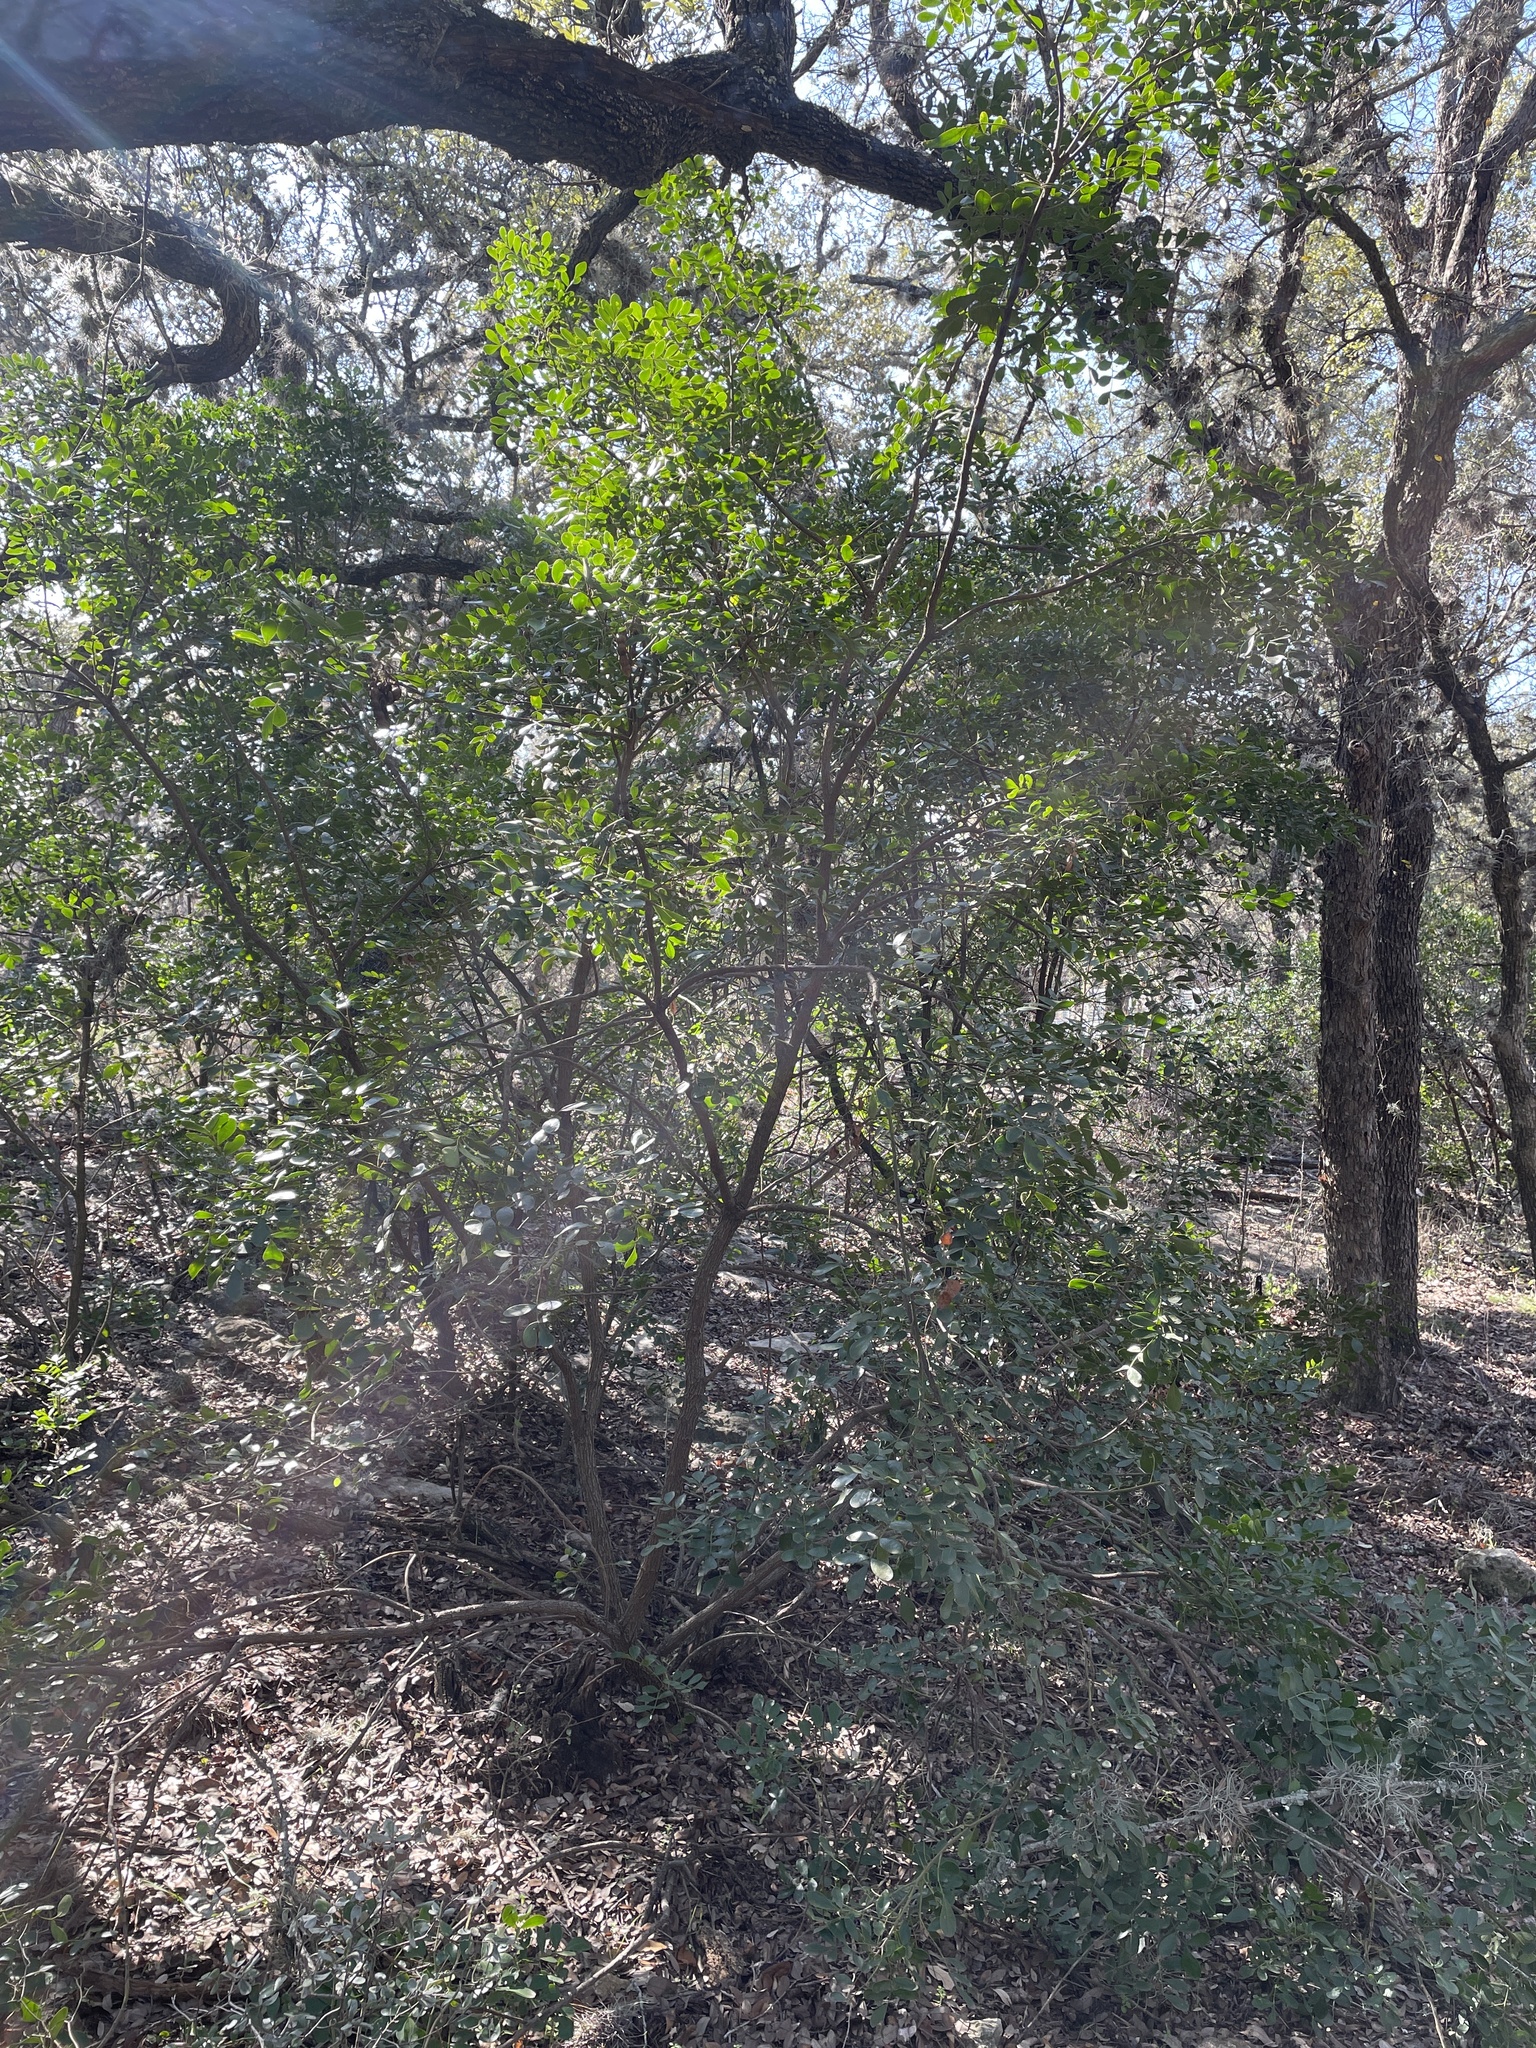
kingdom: Plantae
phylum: Tracheophyta
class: Magnoliopsida
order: Fabales
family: Fabaceae
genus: Dermatophyllum
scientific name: Dermatophyllum secundiflorum
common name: Texas-mountain-laurel
